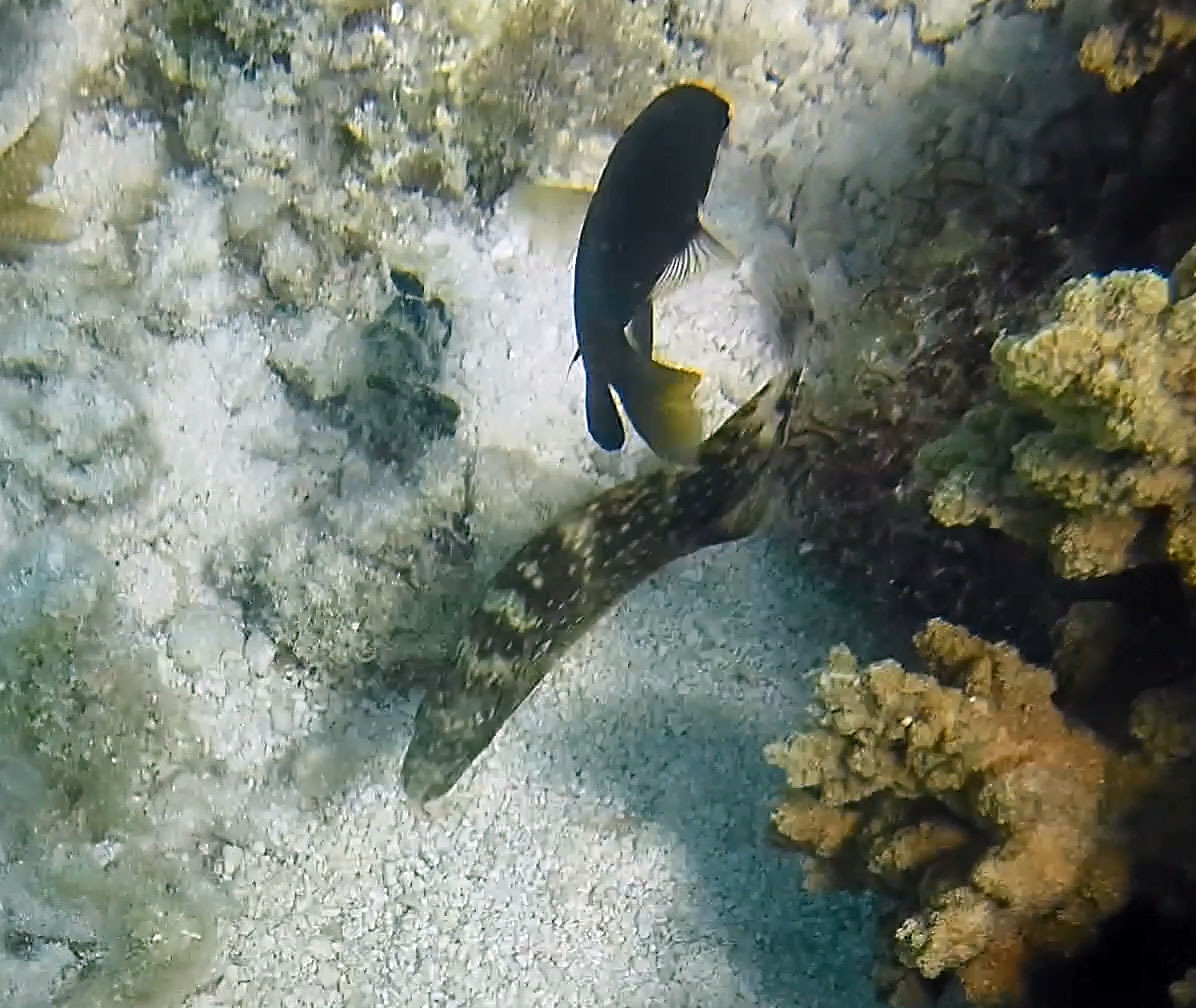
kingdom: Animalia
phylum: Chordata
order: Perciformes
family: Labridae
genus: Cheilinus
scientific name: Cheilinus chlorourus
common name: Floral wrasse
